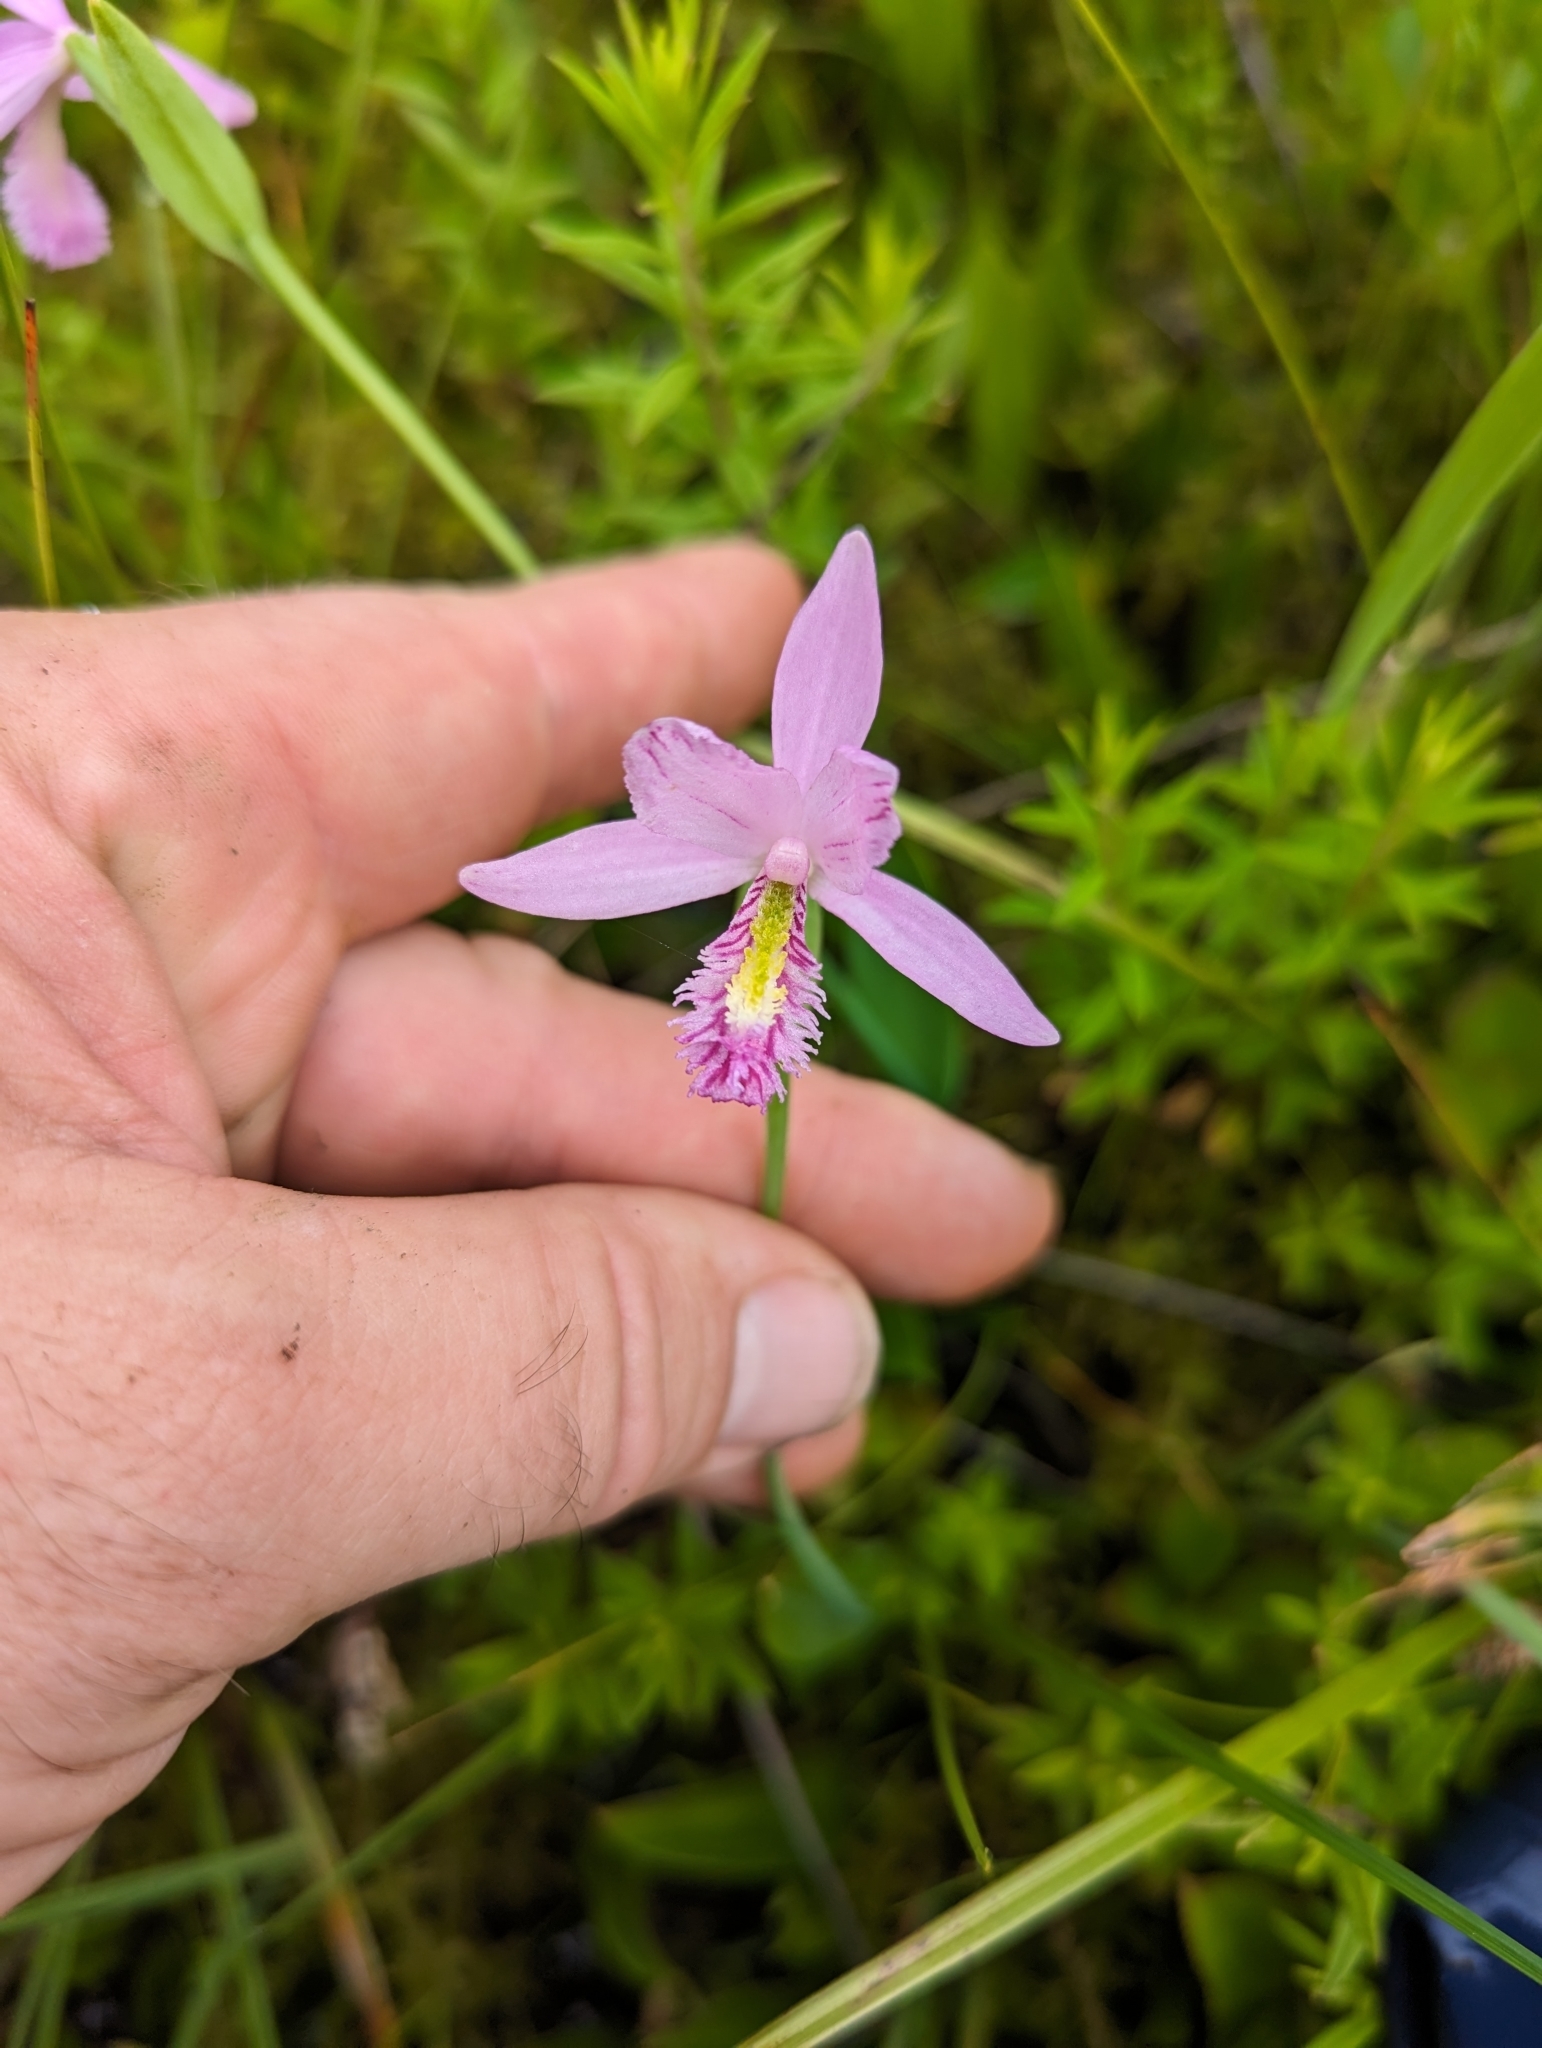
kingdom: Plantae
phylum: Tracheophyta
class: Liliopsida
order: Asparagales
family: Orchidaceae
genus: Pogonia
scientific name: Pogonia ophioglossoides
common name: Rose pogonia
